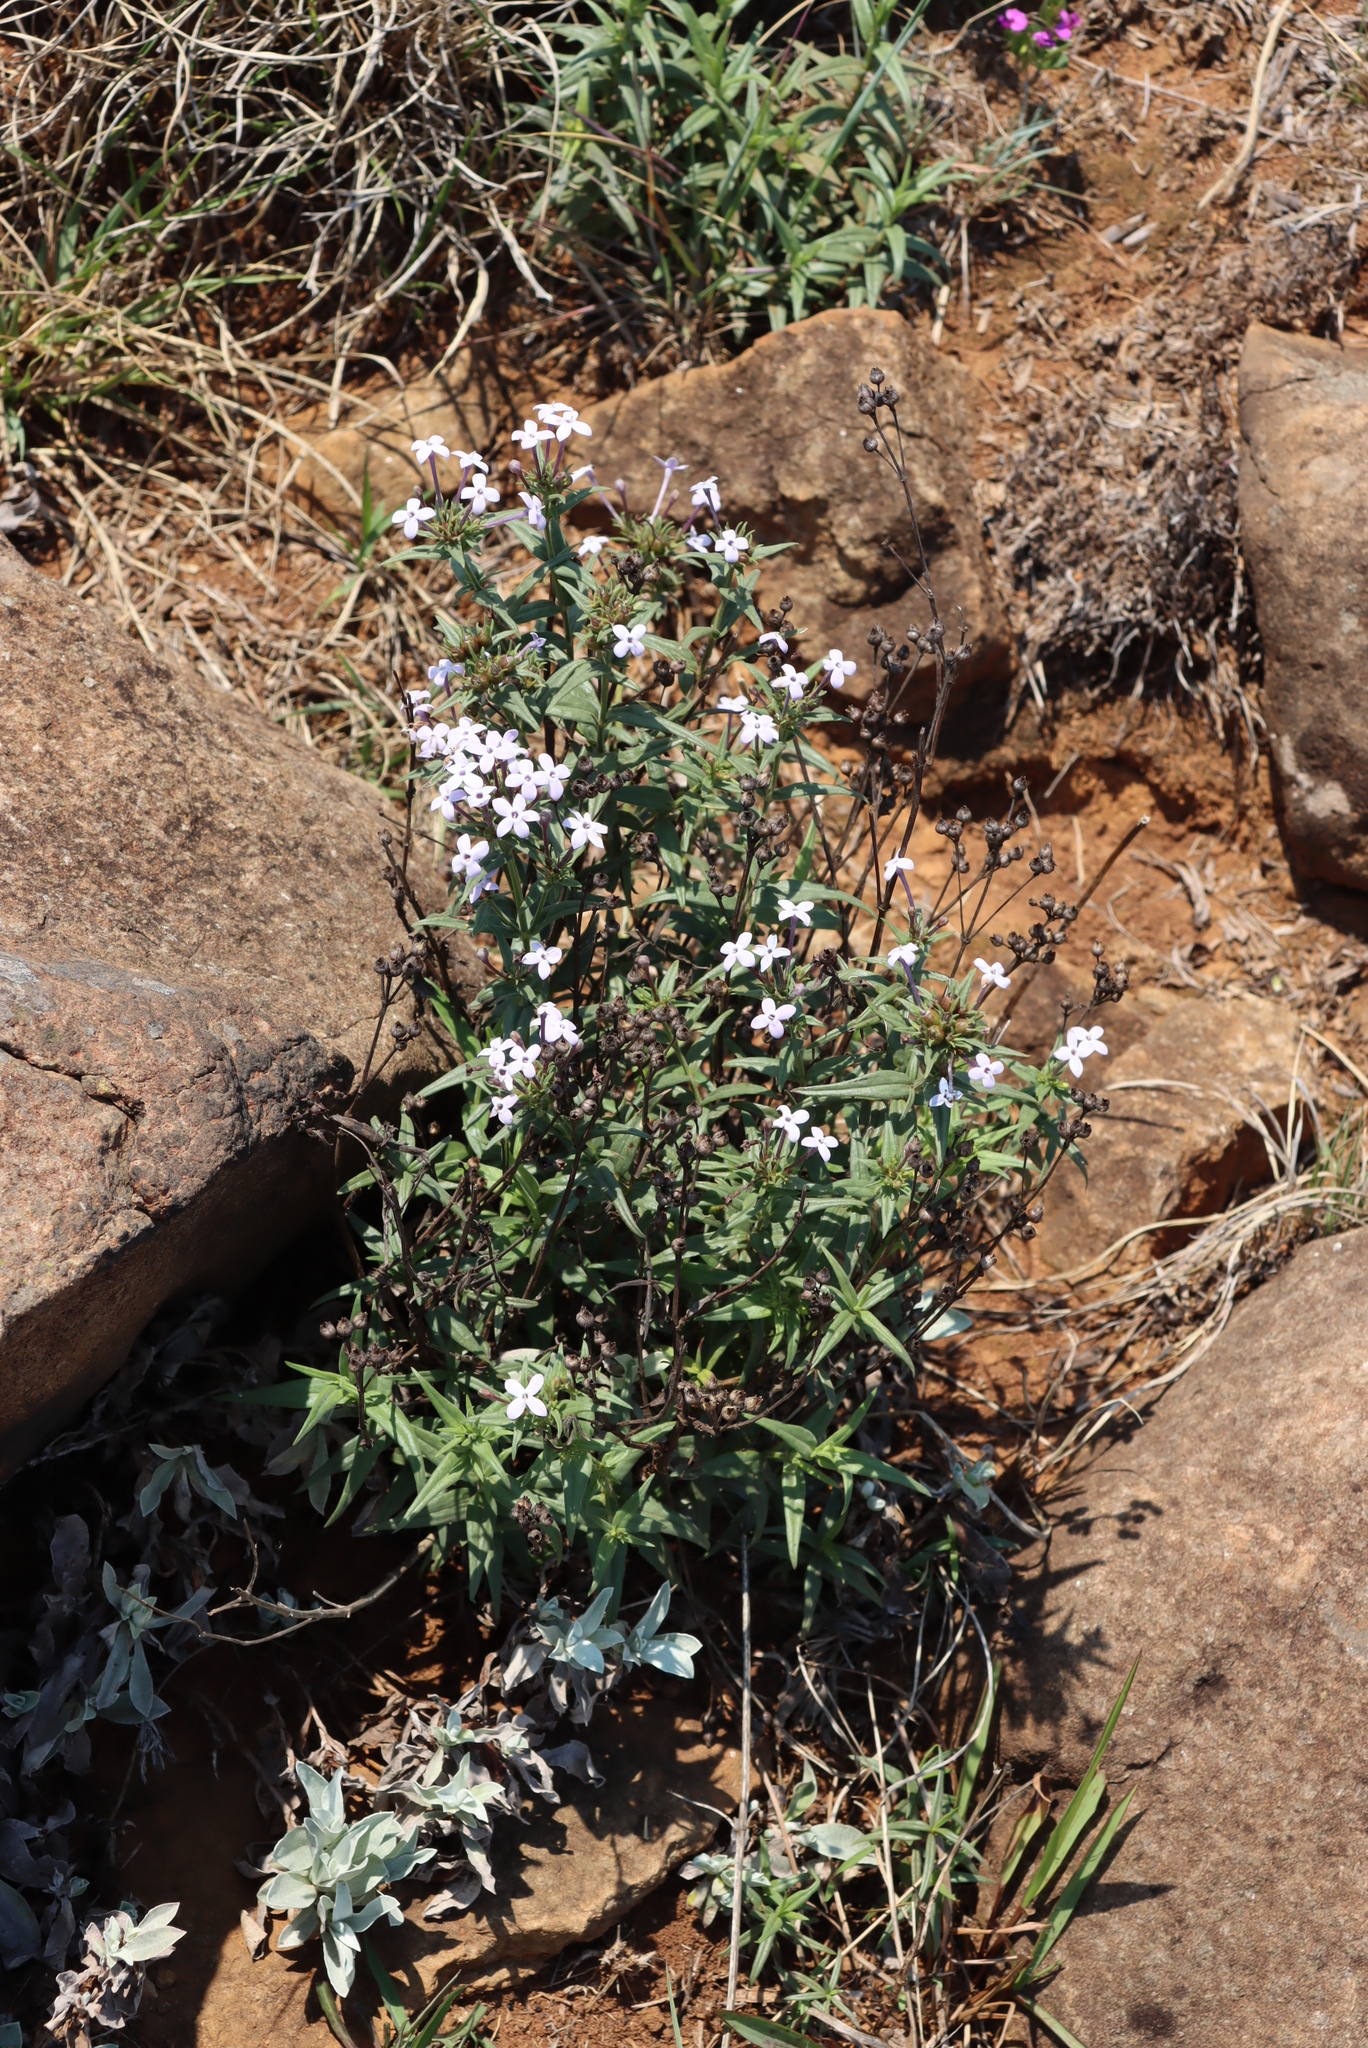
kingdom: Plantae
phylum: Tracheophyta
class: Magnoliopsida
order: Gentianales
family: Rubiaceae
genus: Conostomium
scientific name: Conostomium natalense
